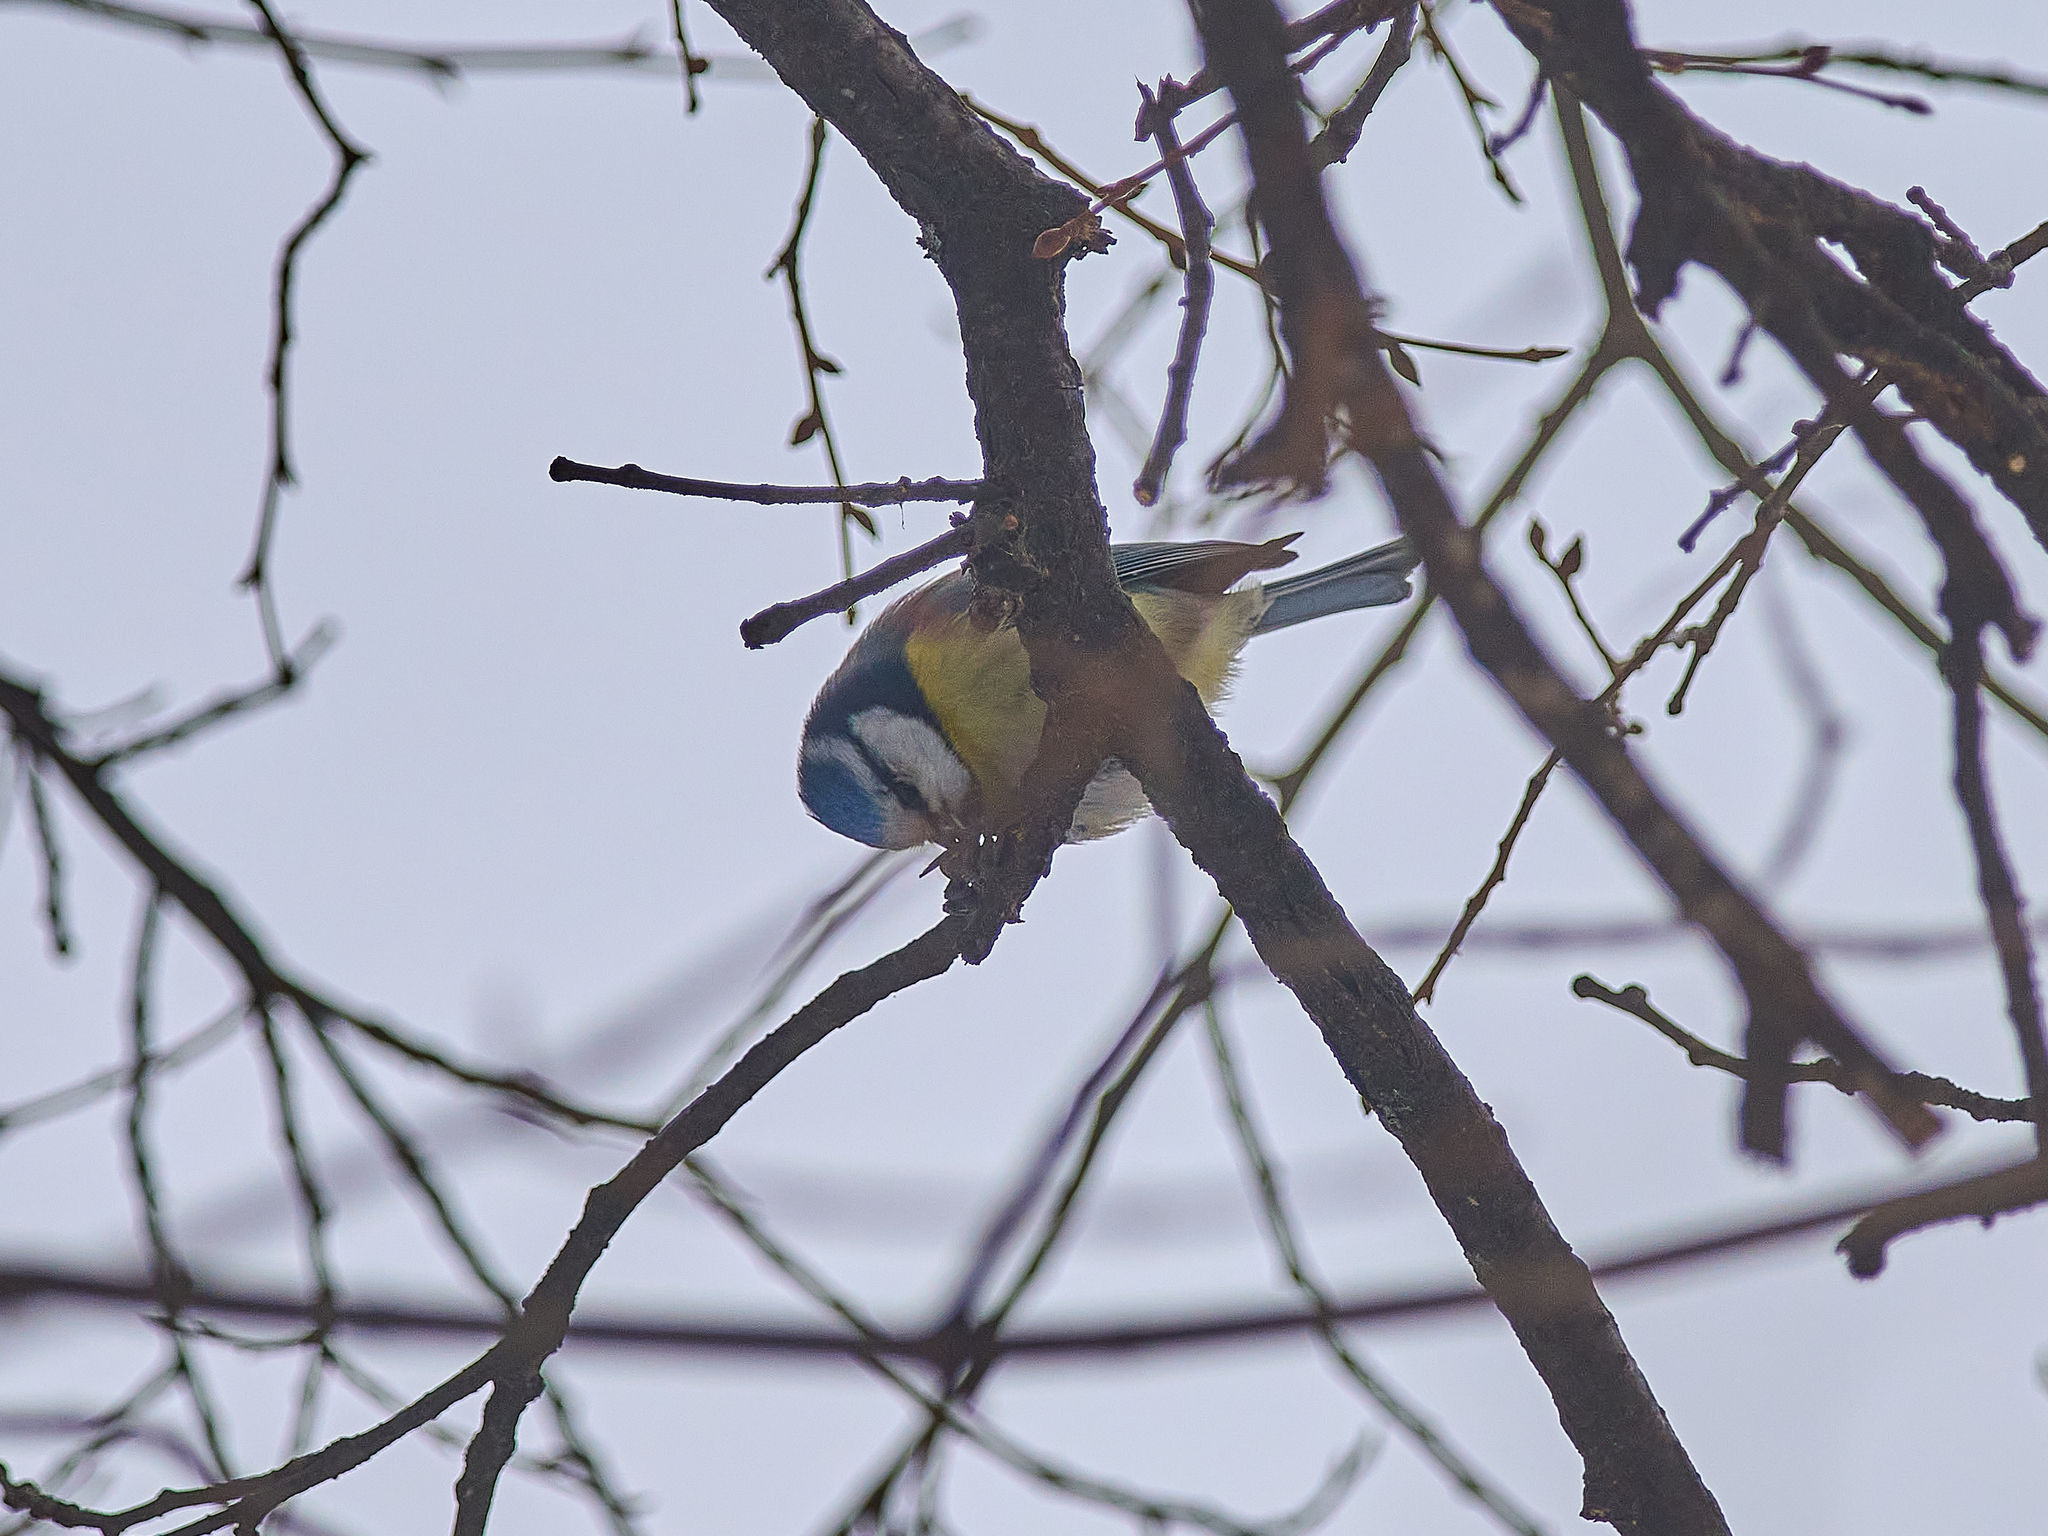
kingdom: Animalia
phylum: Chordata
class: Aves
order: Passeriformes
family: Paridae
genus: Cyanistes
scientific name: Cyanistes caeruleus
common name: Eurasian blue tit
